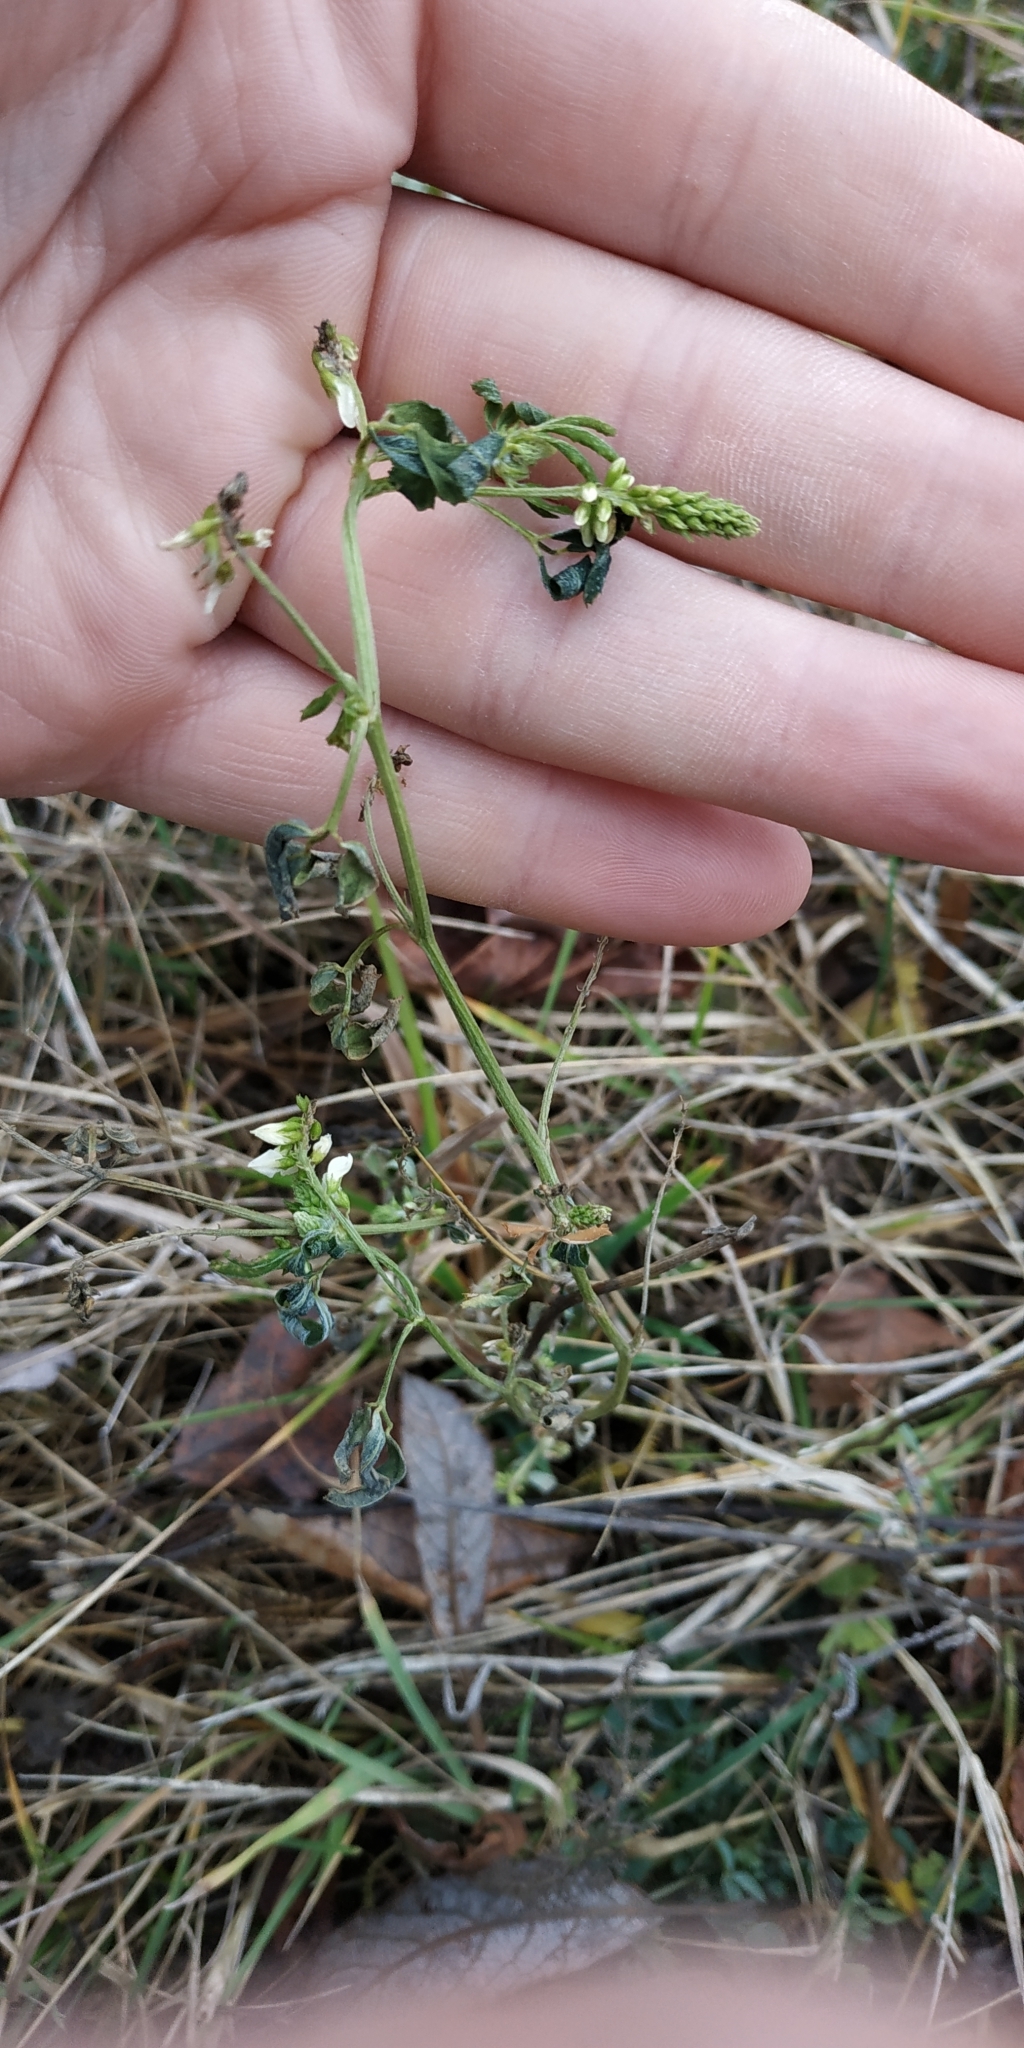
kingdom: Plantae
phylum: Tracheophyta
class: Magnoliopsida
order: Fabales
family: Fabaceae
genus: Melilotus
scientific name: Melilotus albus
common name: White melilot
